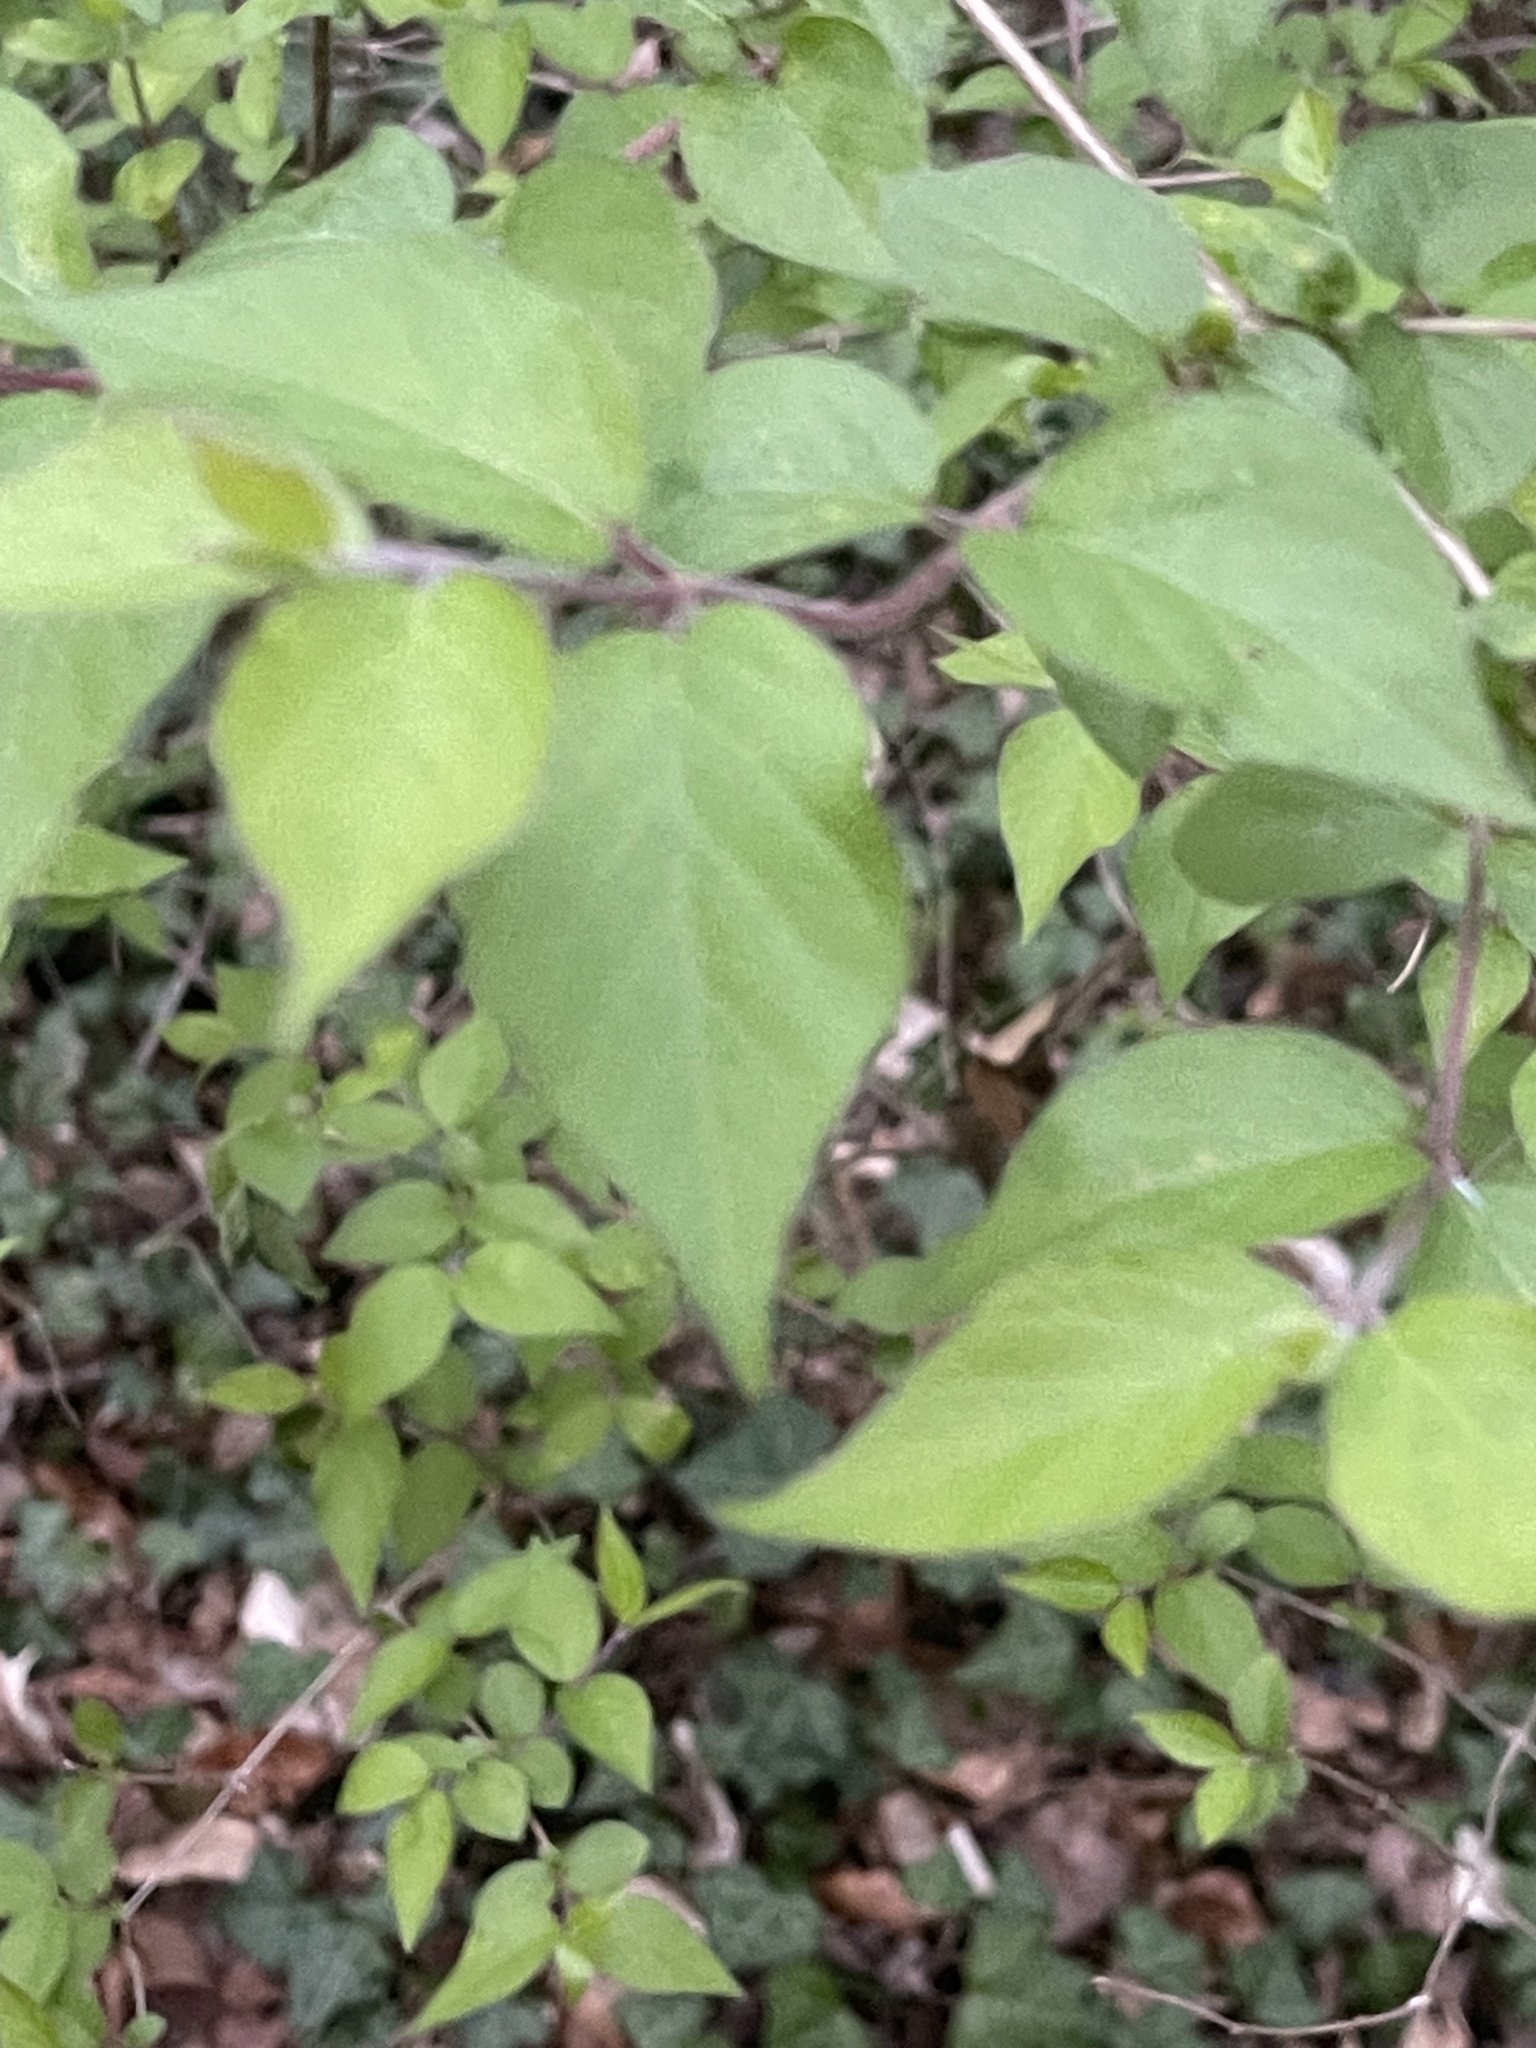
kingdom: Plantae
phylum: Tracheophyta
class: Magnoliopsida
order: Dipsacales
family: Caprifoliaceae
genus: Lonicera
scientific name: Lonicera maackii
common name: Amur honeysuckle
